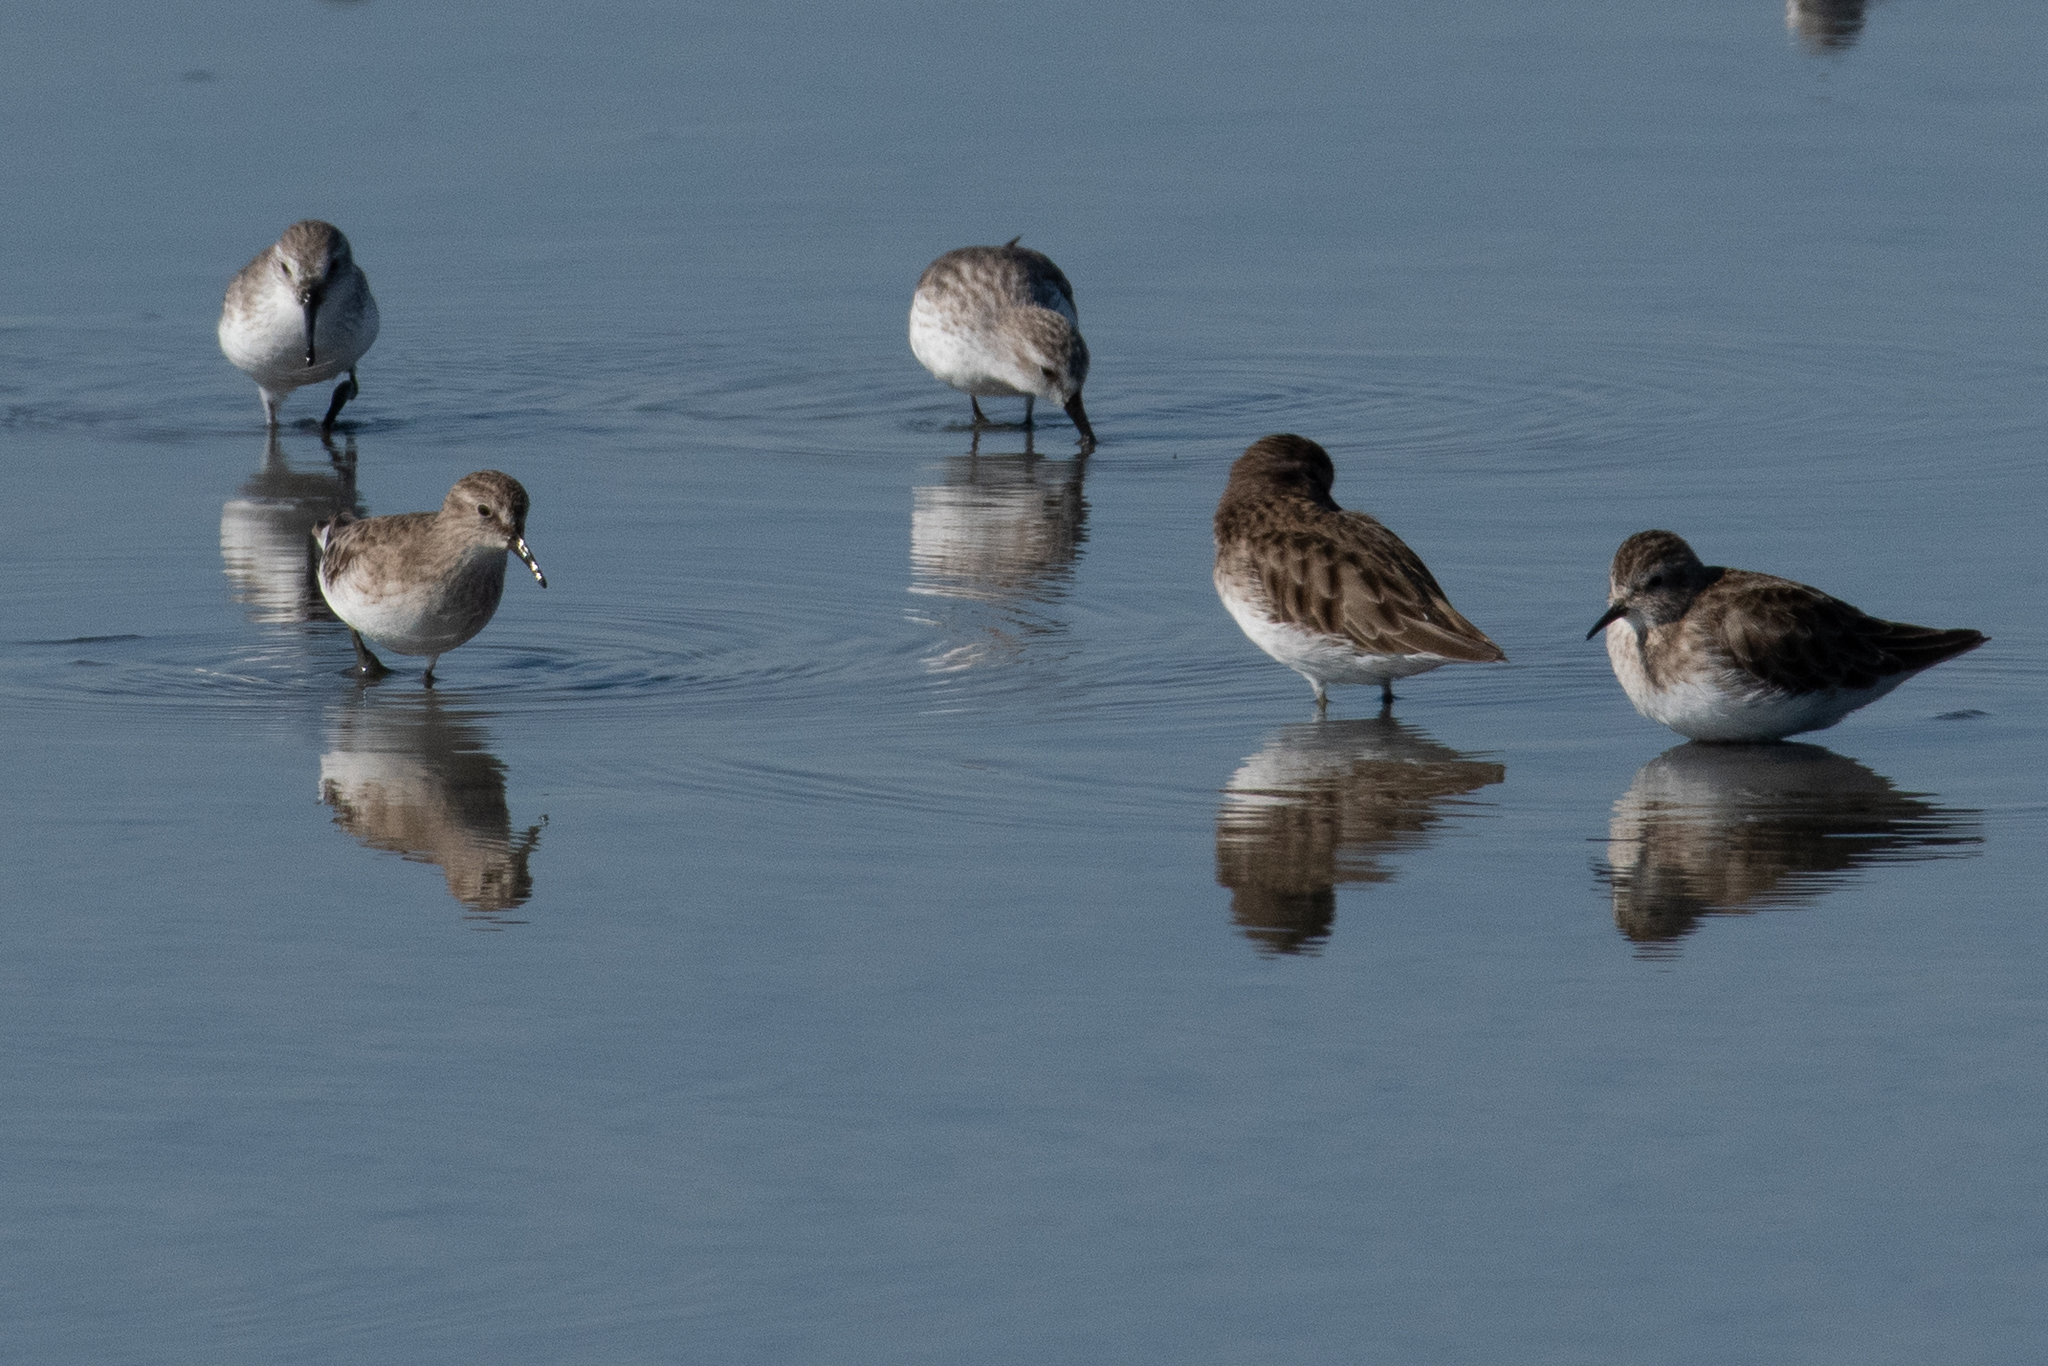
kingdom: Animalia
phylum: Chordata
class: Aves
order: Charadriiformes
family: Scolopacidae
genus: Calidris
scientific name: Calidris alpina
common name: Dunlin
